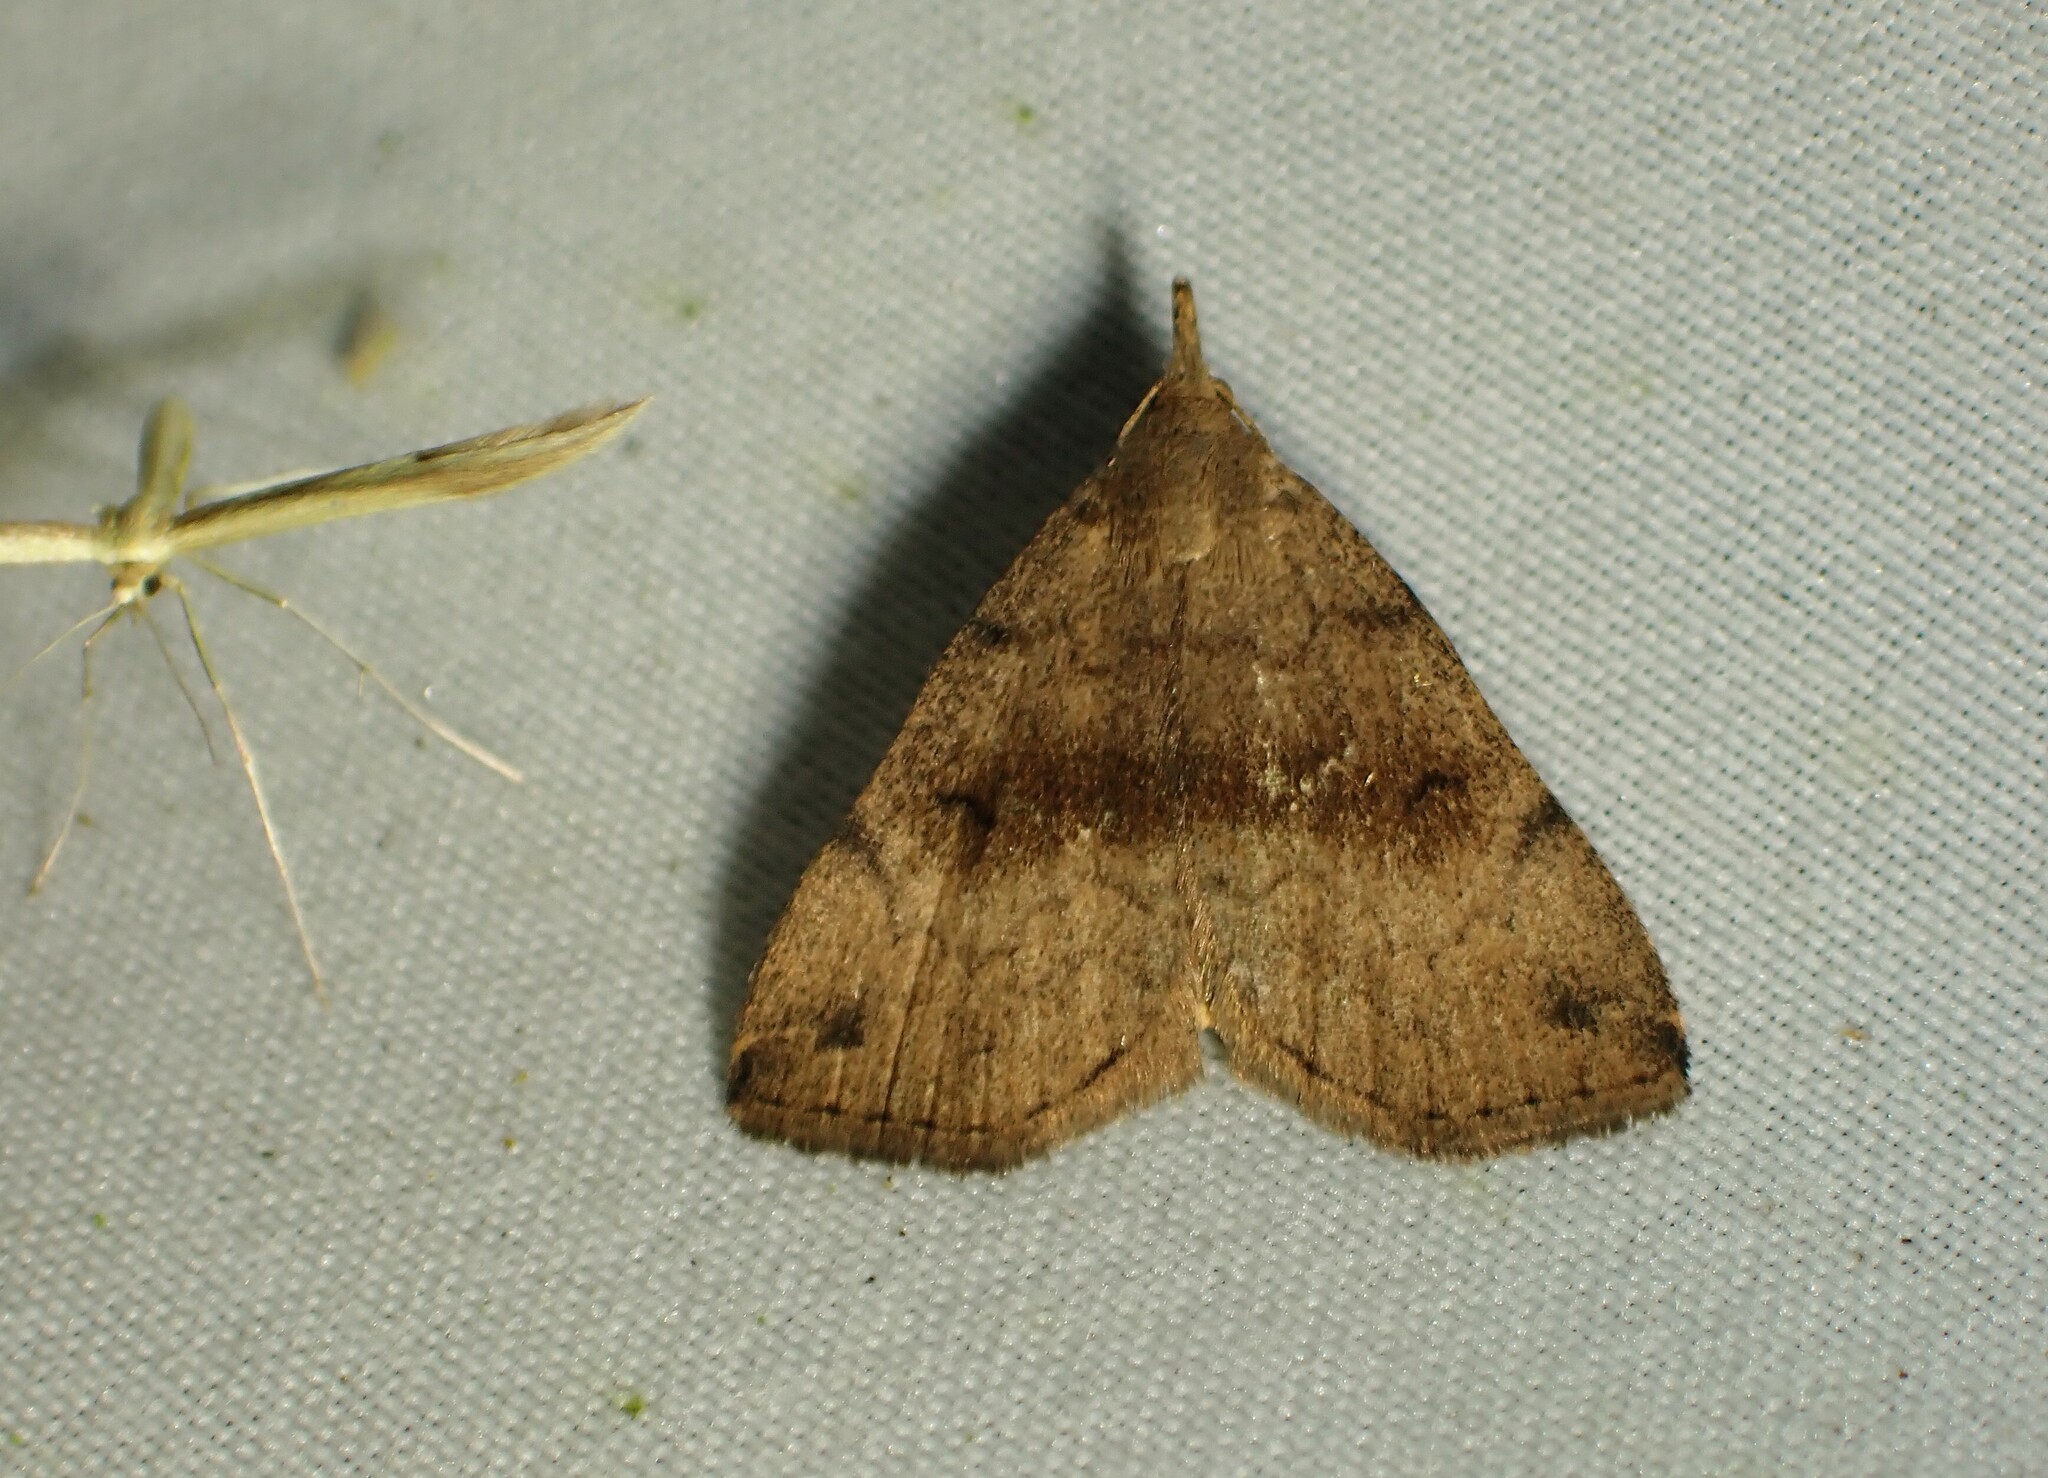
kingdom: Animalia
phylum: Arthropoda
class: Insecta
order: Lepidoptera
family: Erebidae
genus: Phalaenostola
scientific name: Phalaenostola eumelusalis
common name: Dark phalaenostola moth
